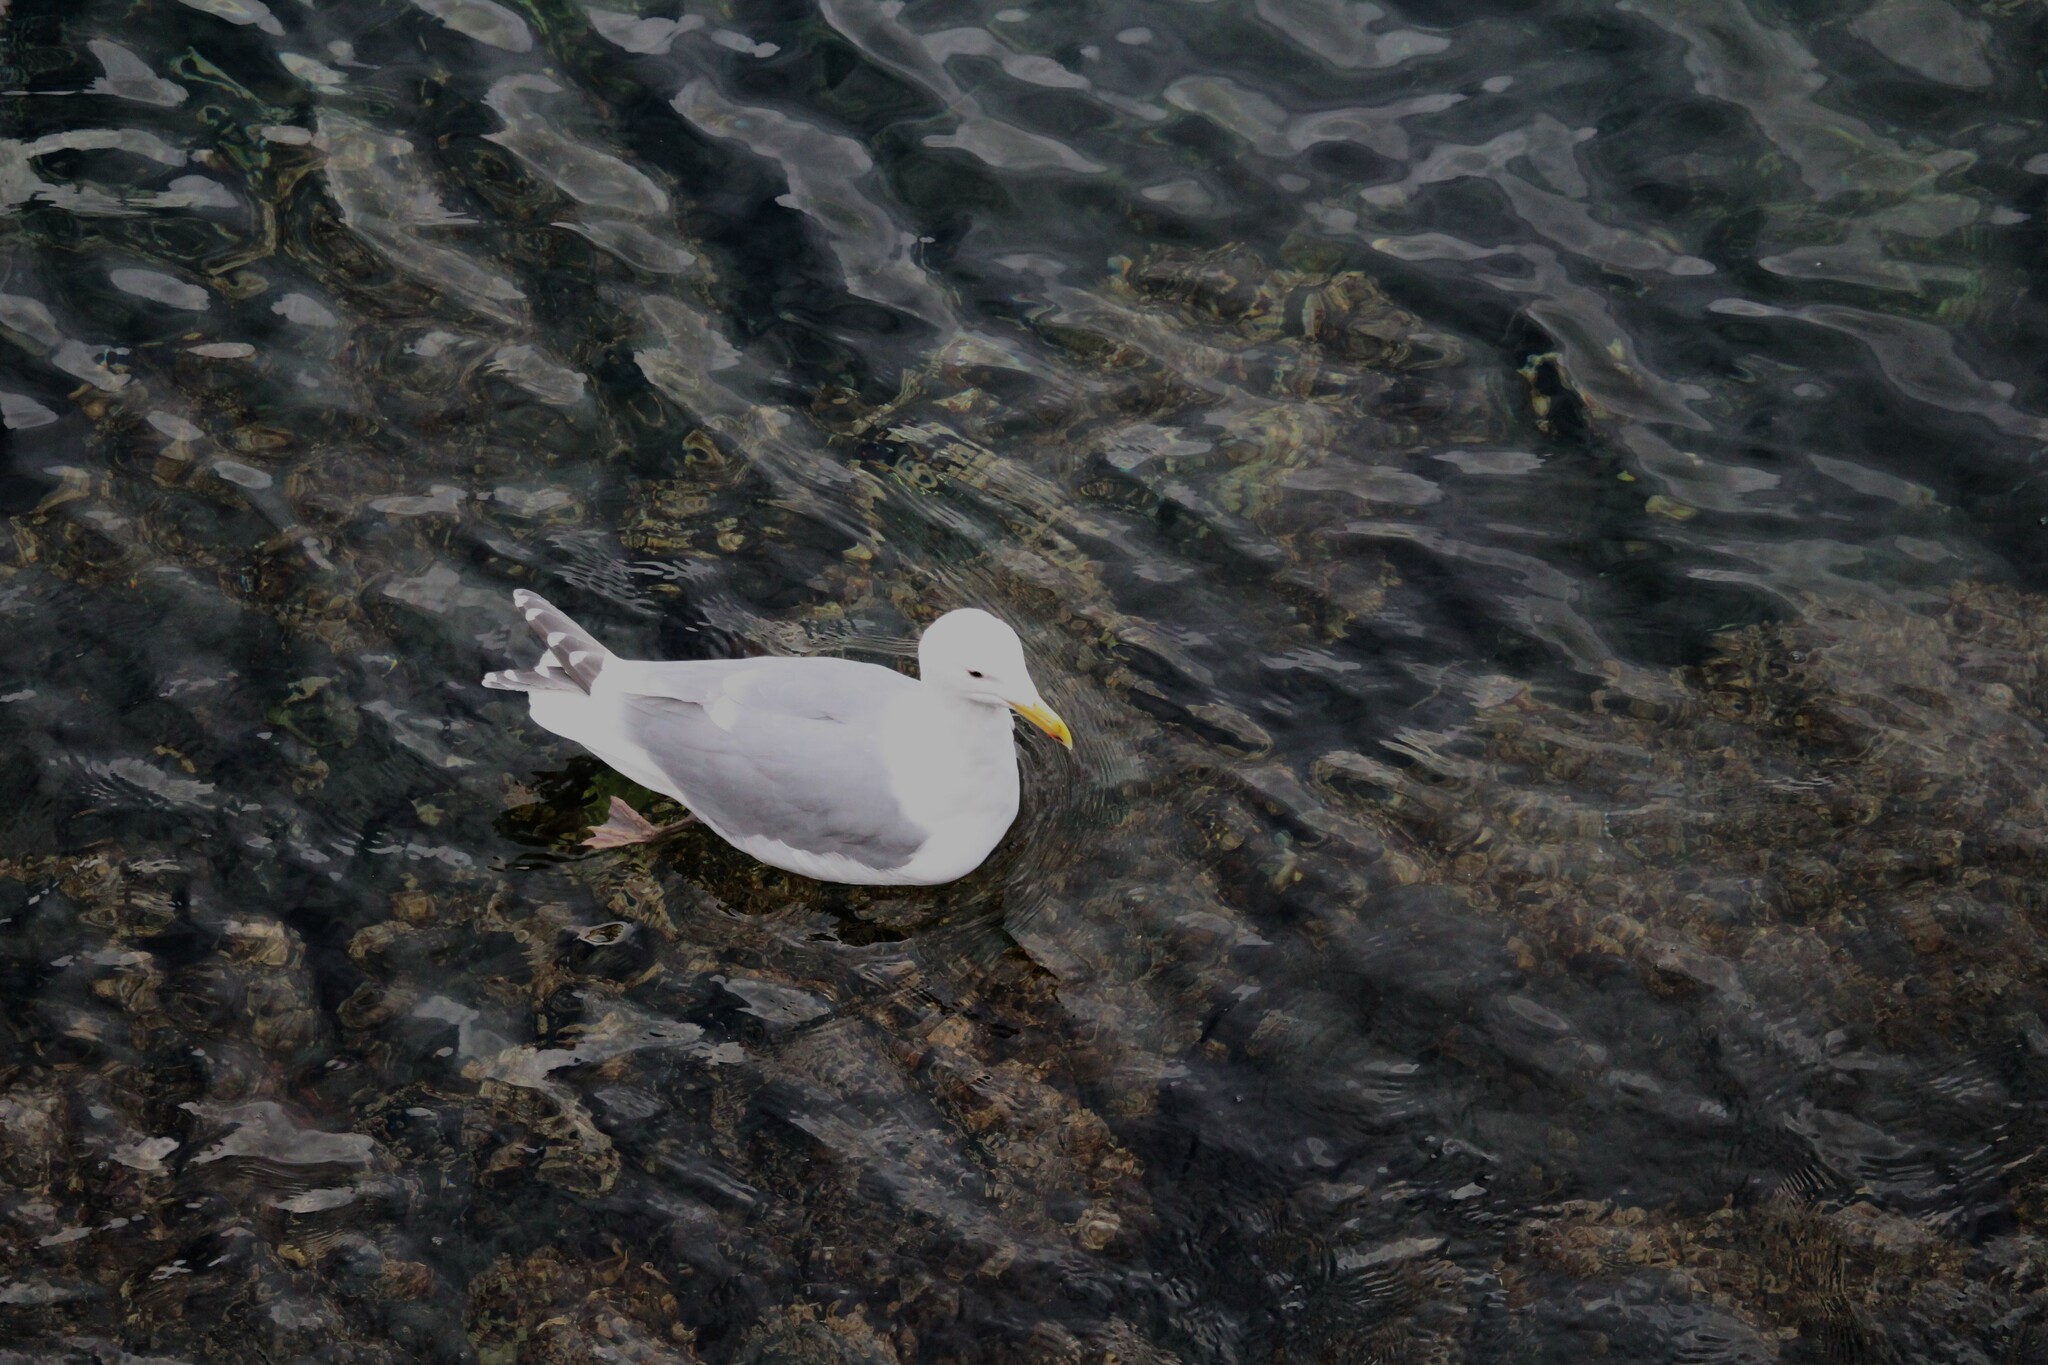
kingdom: Animalia
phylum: Chordata
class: Aves
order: Charadriiformes
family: Laridae
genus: Larus
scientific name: Larus
